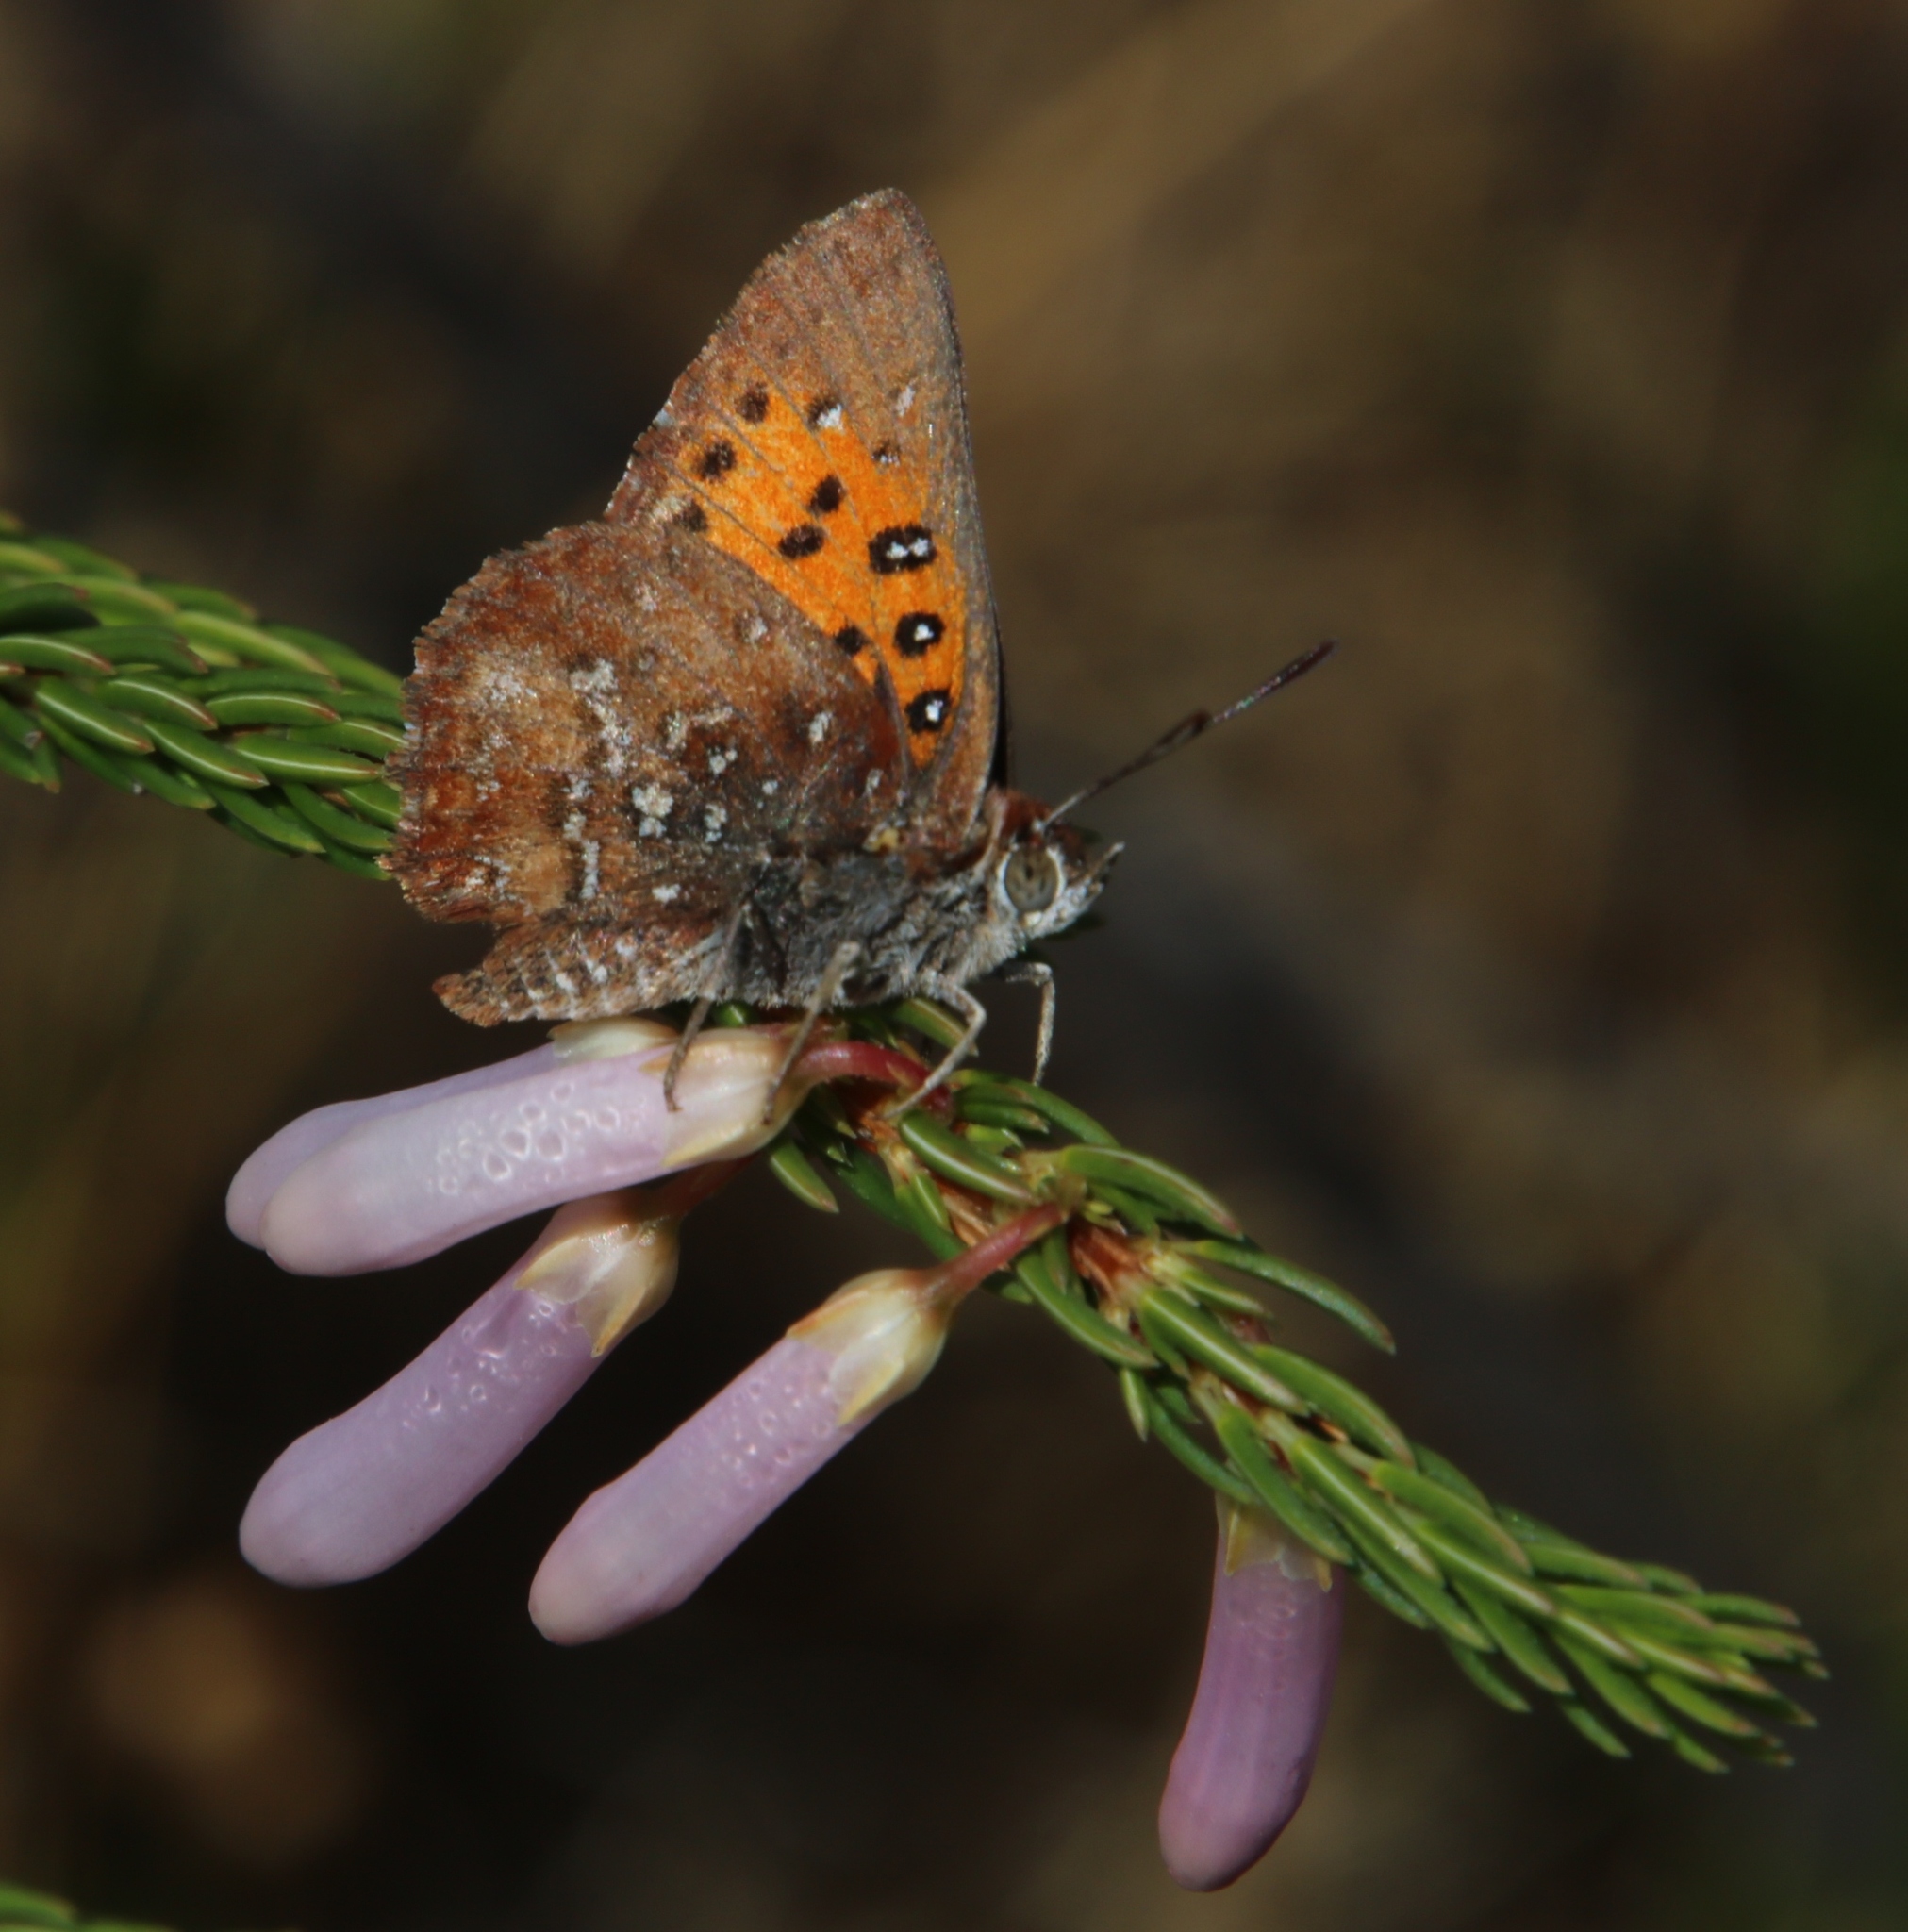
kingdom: Animalia
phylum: Arthropoda
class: Insecta
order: Lepidoptera
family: Lycaenidae
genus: Aloeides
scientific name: Aloeides
